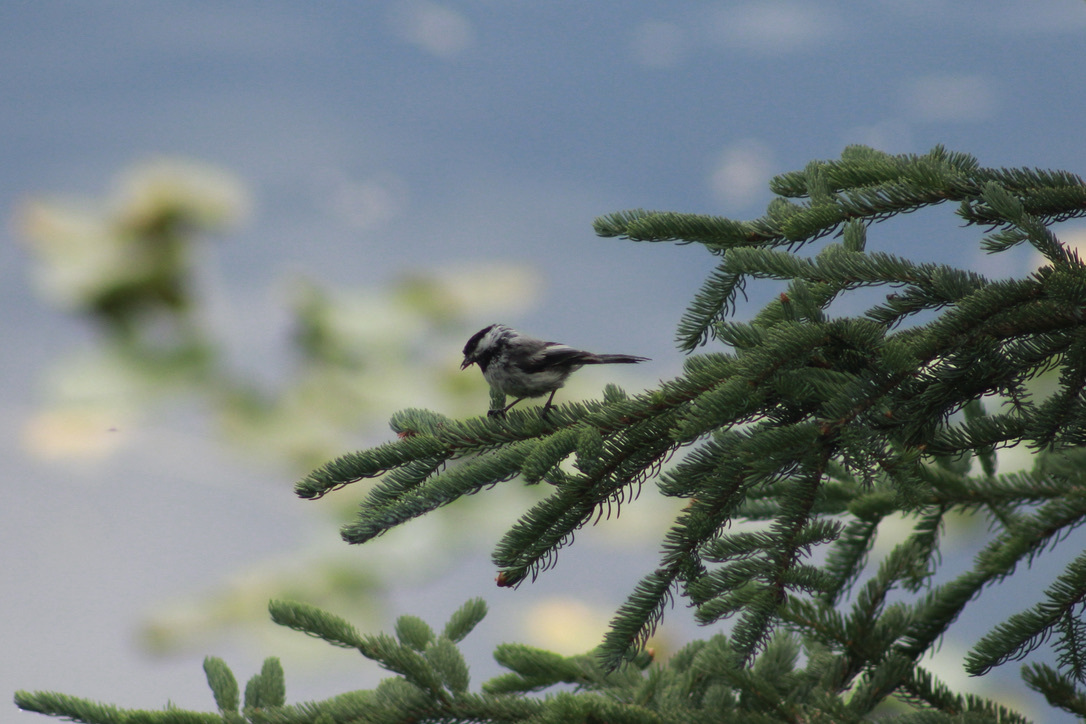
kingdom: Animalia
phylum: Chordata
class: Aves
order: Passeriformes
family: Paridae
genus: Poecile
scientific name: Poecile atricapillus
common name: Black-capped chickadee
